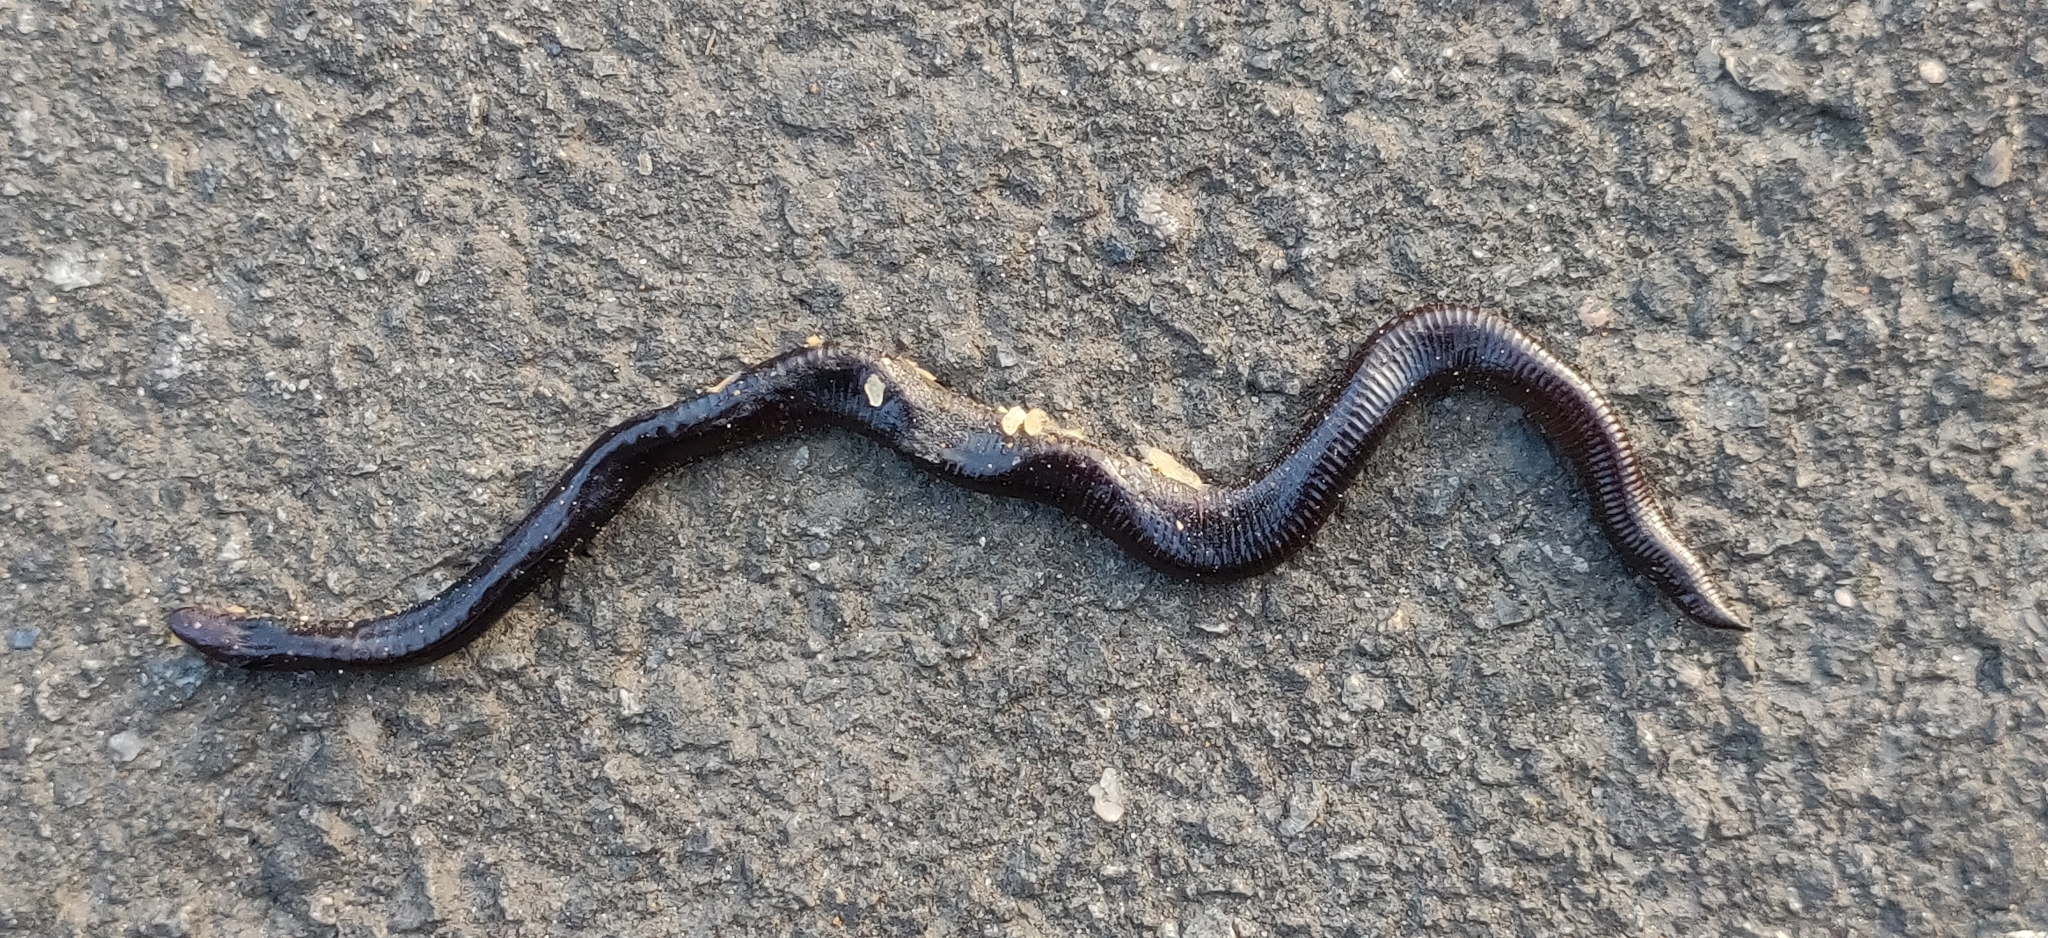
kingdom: Animalia
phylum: Chordata
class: Amphibia
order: Gymnophiona
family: Ichthyophiidae
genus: Uraeotyphlus
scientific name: Uraeotyphlus oxyurus
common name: Dark-brown caecilian
